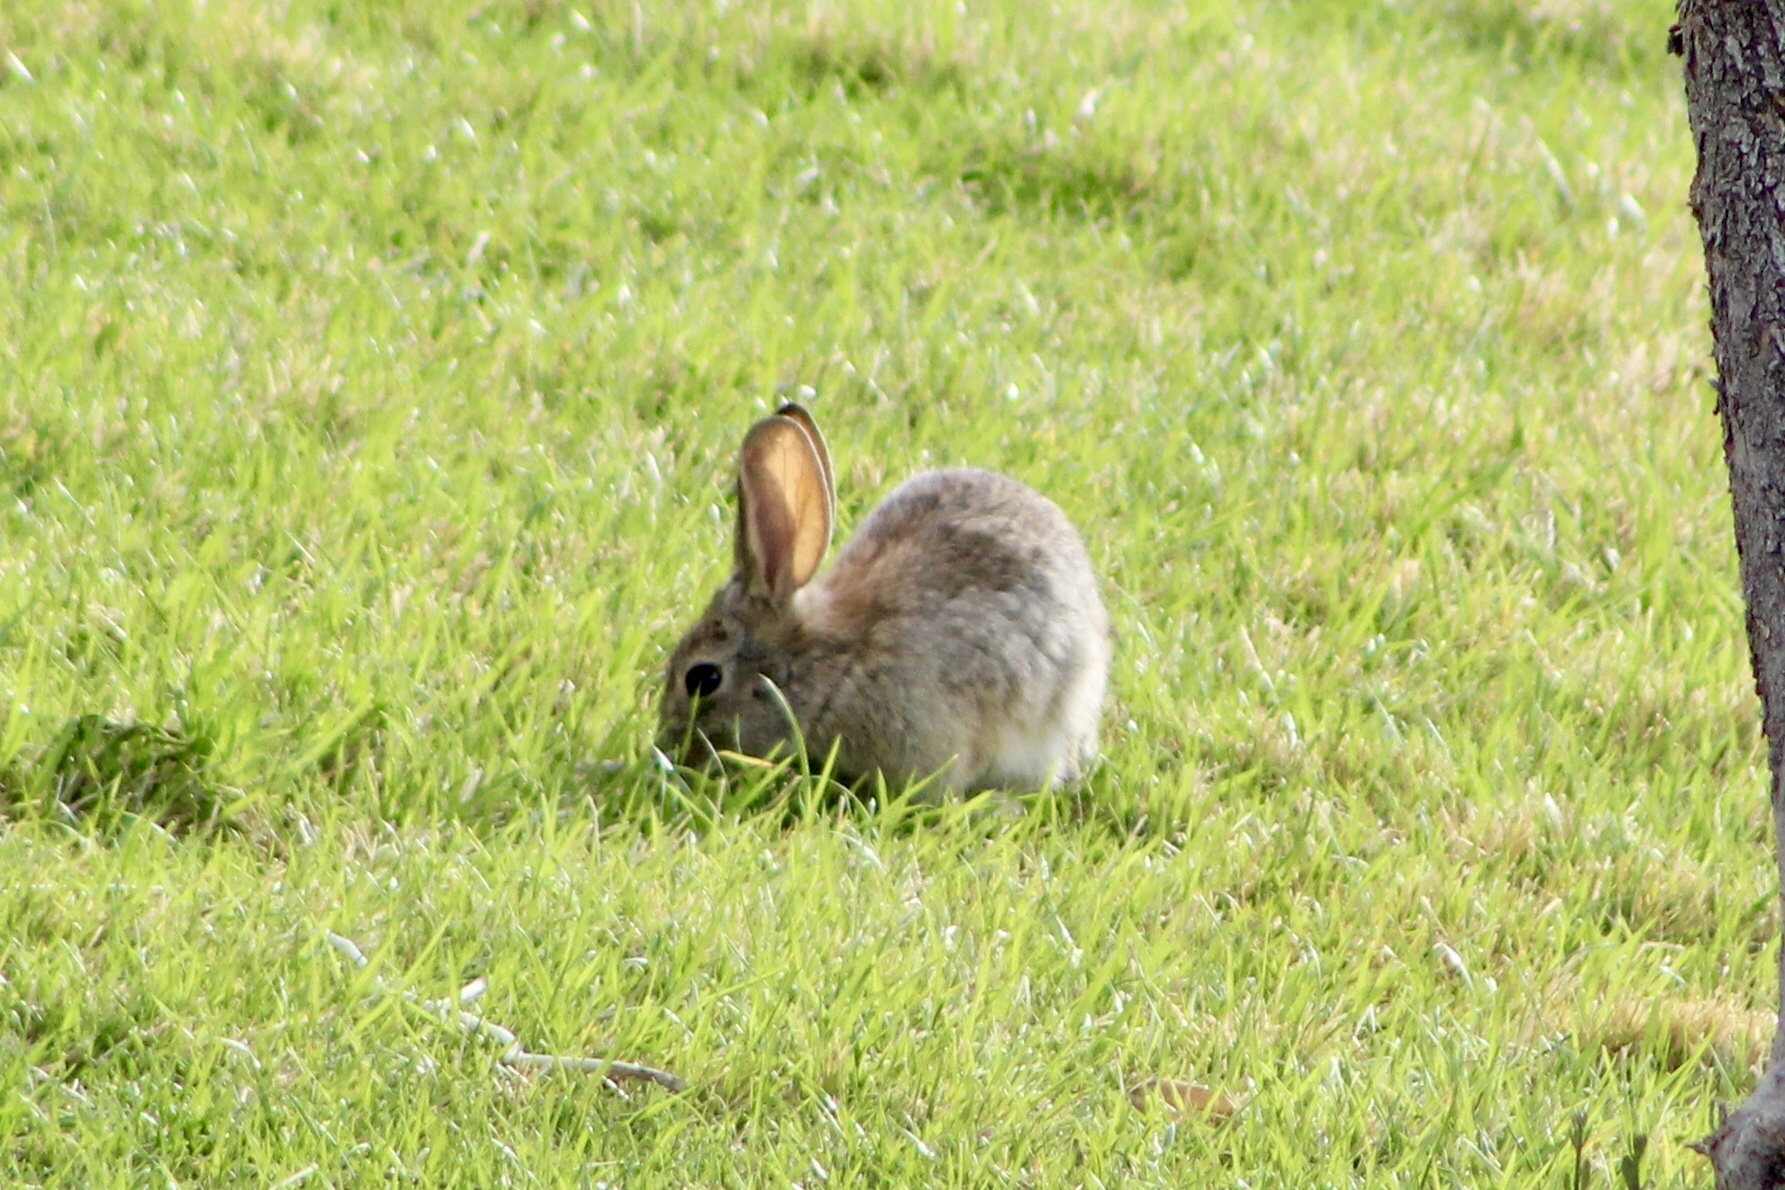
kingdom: Animalia
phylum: Chordata
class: Mammalia
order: Lagomorpha
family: Leporidae
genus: Sylvilagus
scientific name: Sylvilagus audubonii
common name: Desert cottontail
